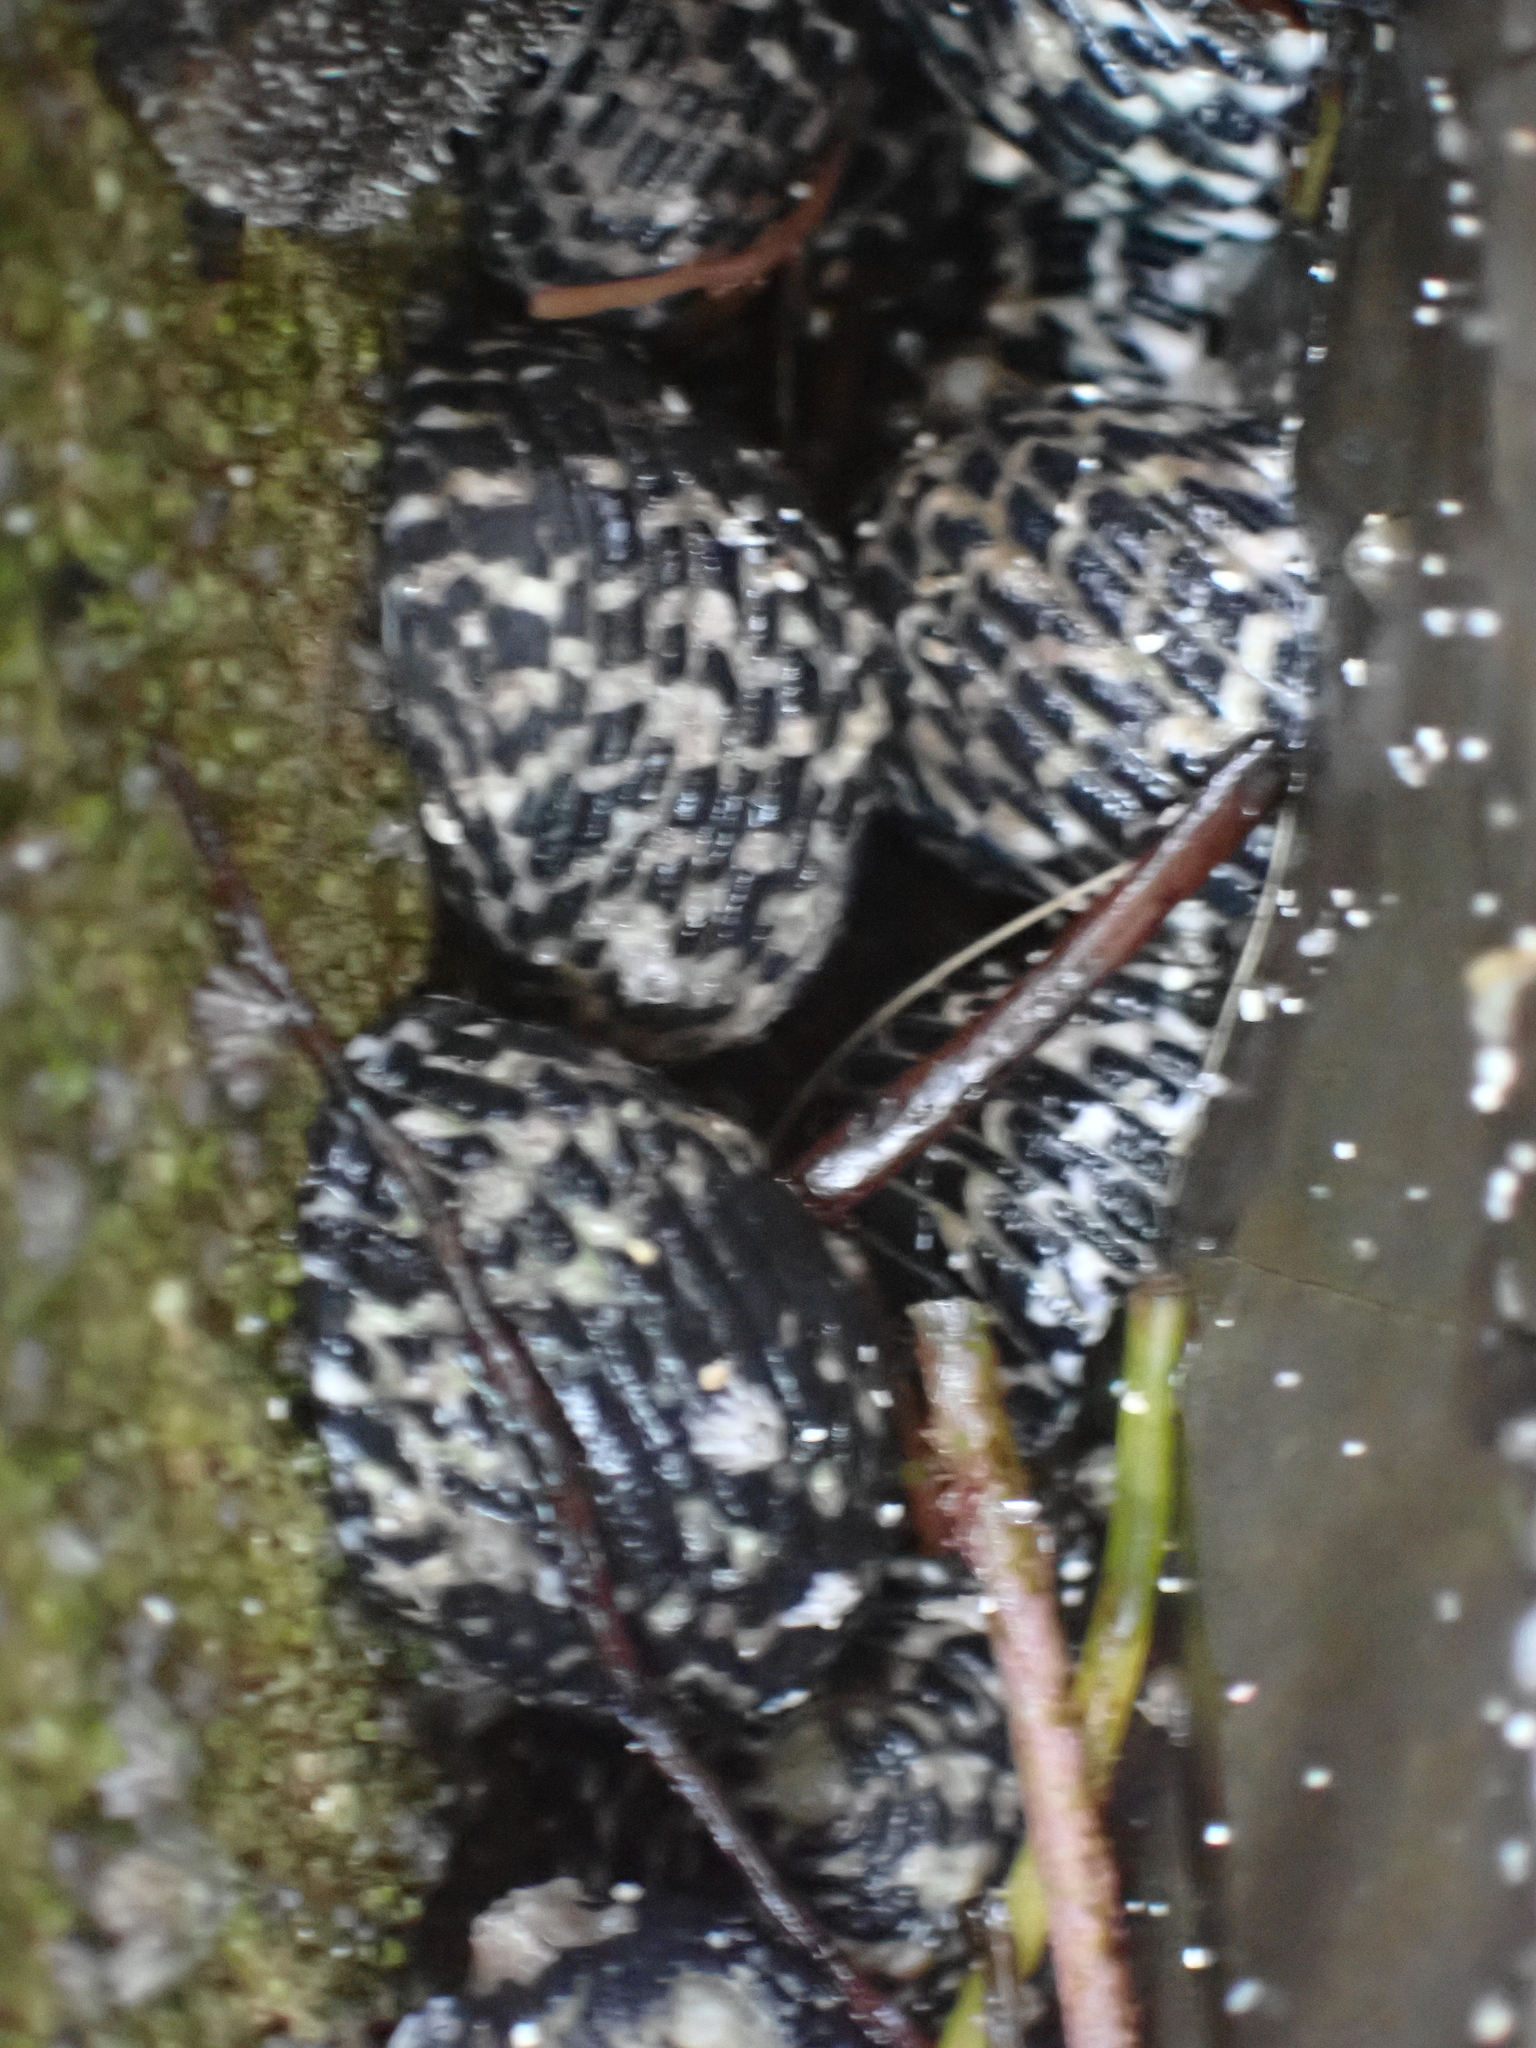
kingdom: Animalia
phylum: Mollusca
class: Gastropoda
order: Cycloneritida
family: Neritidae
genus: Nerita
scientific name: Nerita tessellata
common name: Checkered nerite
